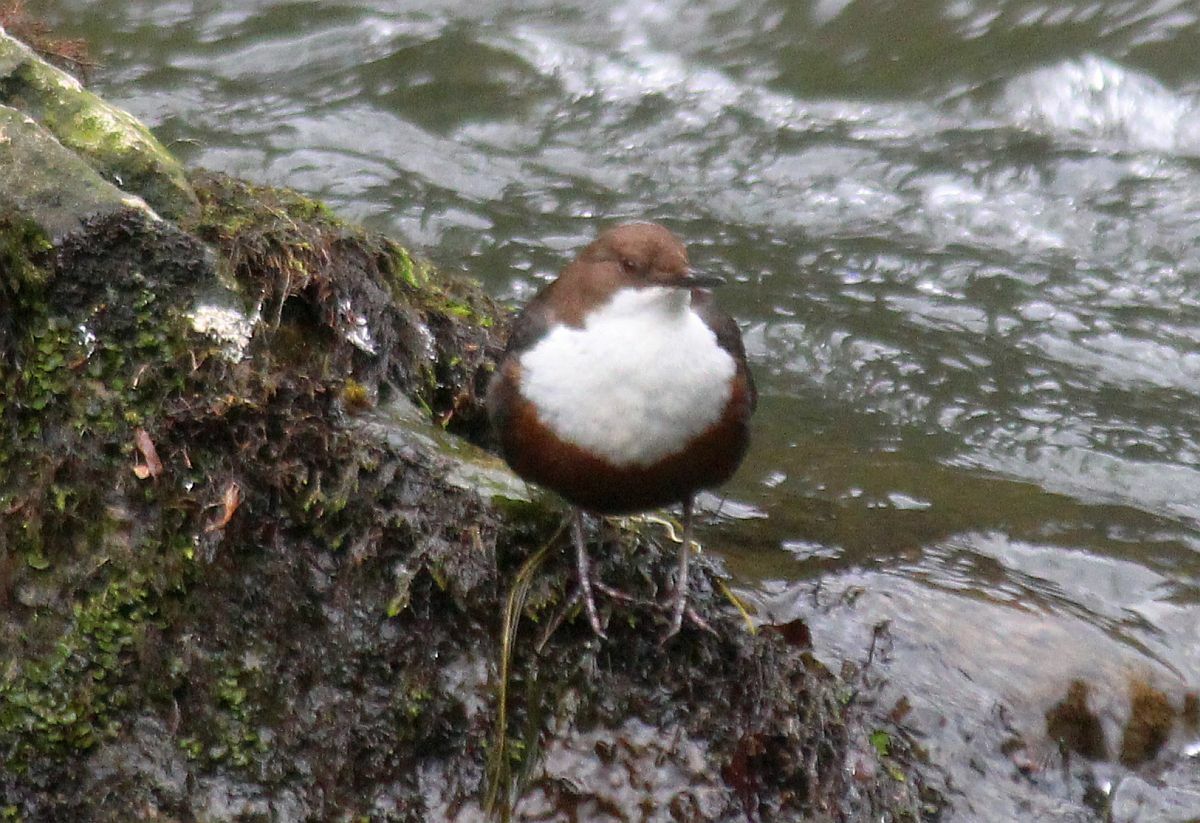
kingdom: Animalia
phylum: Chordata
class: Aves
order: Passeriformes
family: Cinclidae
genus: Cinclus
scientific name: Cinclus cinclus
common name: White-throated dipper
